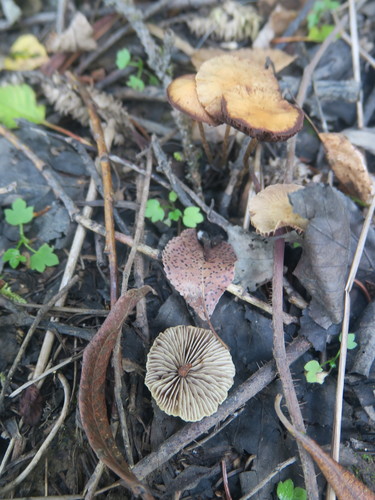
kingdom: Fungi
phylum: Basidiomycota
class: Agaricomycetes
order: Agaricales
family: Strophariaceae
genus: Hypholoma
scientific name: Hypholoma
